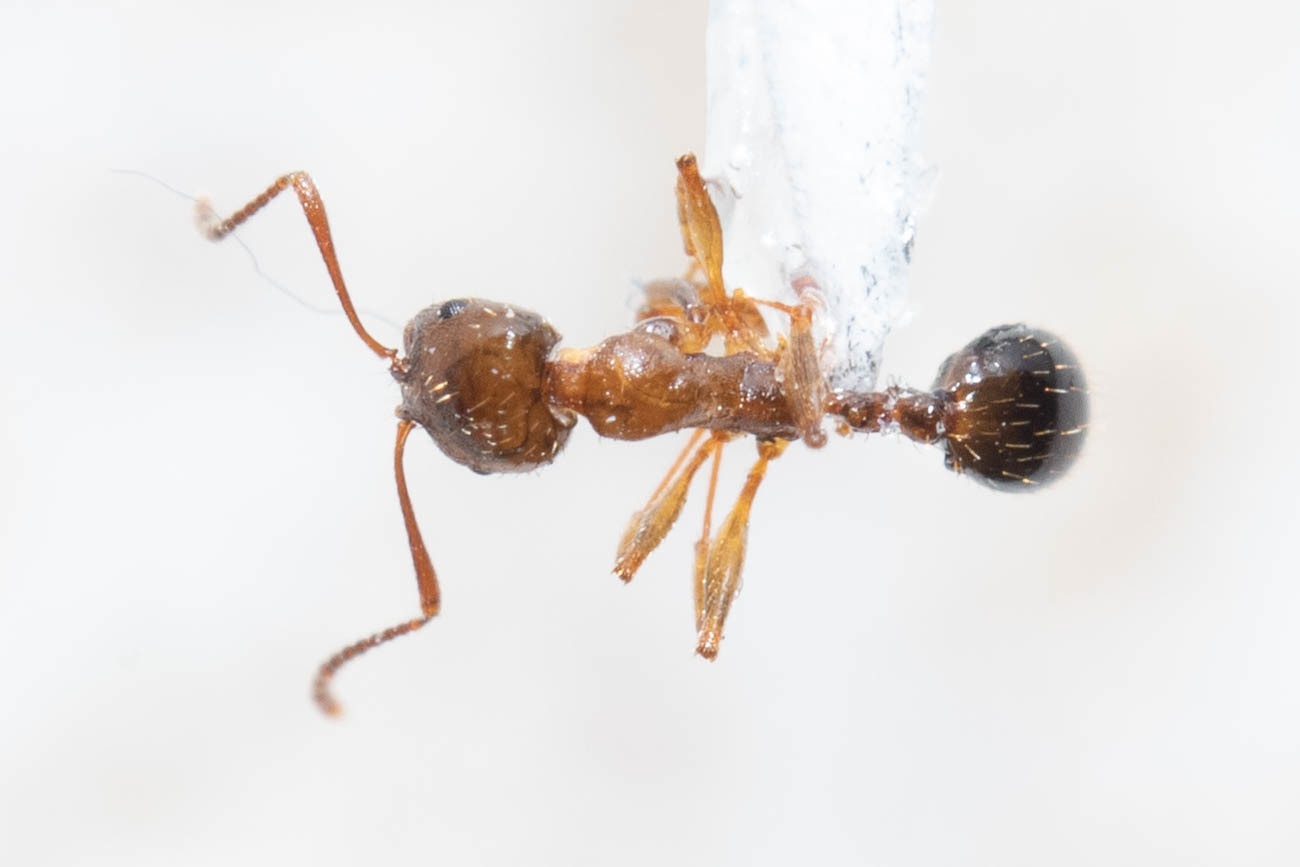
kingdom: Animalia
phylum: Arthropoda
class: Insecta
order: Hymenoptera
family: Formicidae
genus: Aphaenogaster
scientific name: Aphaenogaster occidentalis
